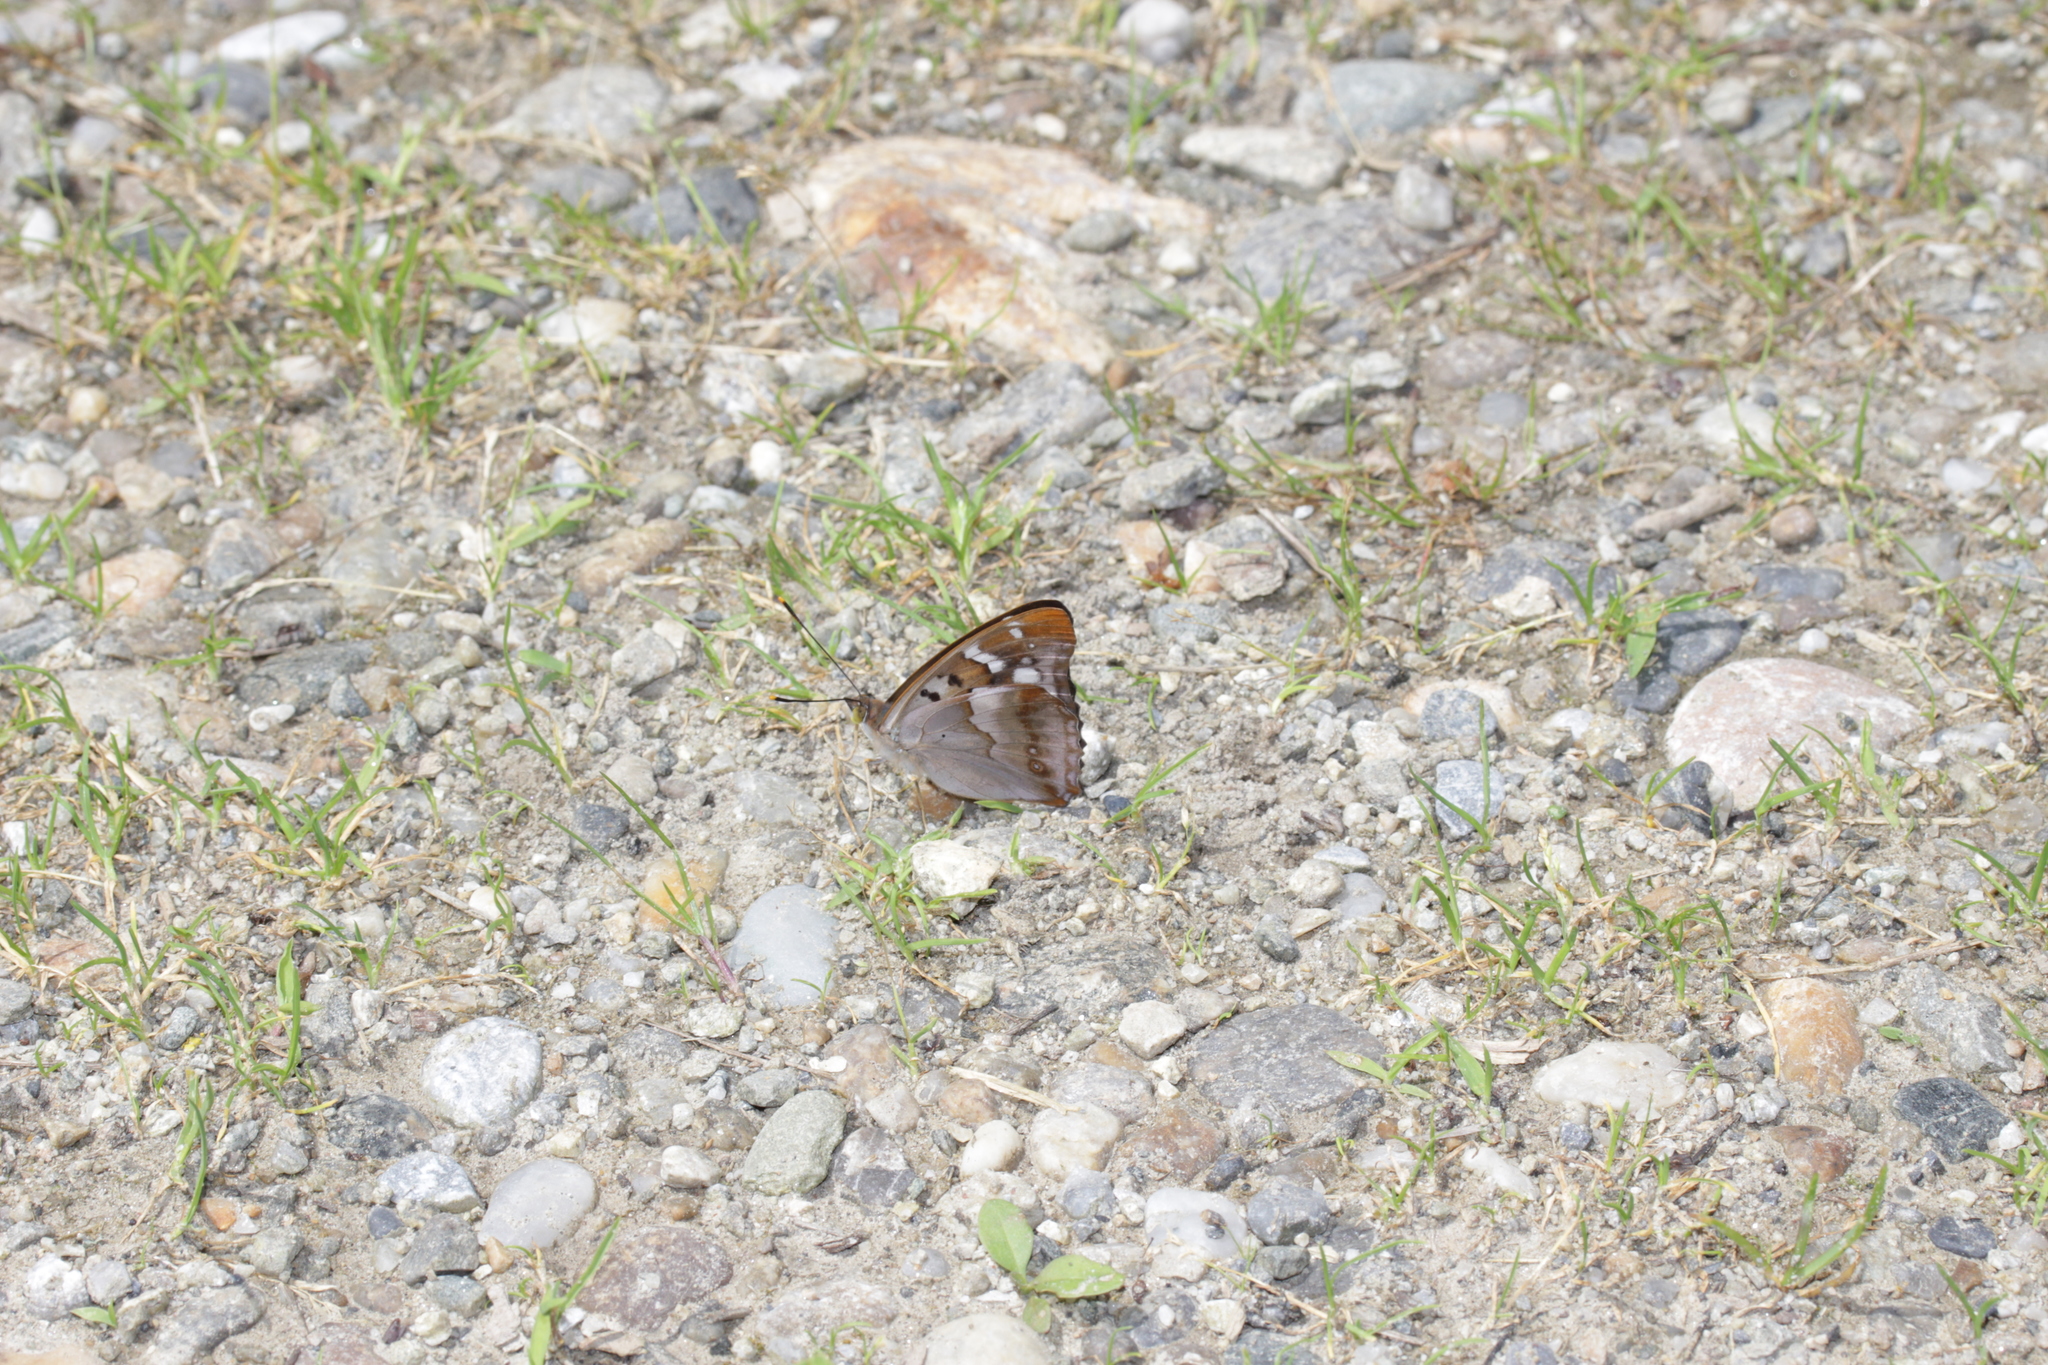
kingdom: Animalia
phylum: Arthropoda
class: Insecta
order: Lepidoptera
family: Nymphalidae
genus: Apatura
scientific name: Apatura ilia
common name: Lesser purple emperor
